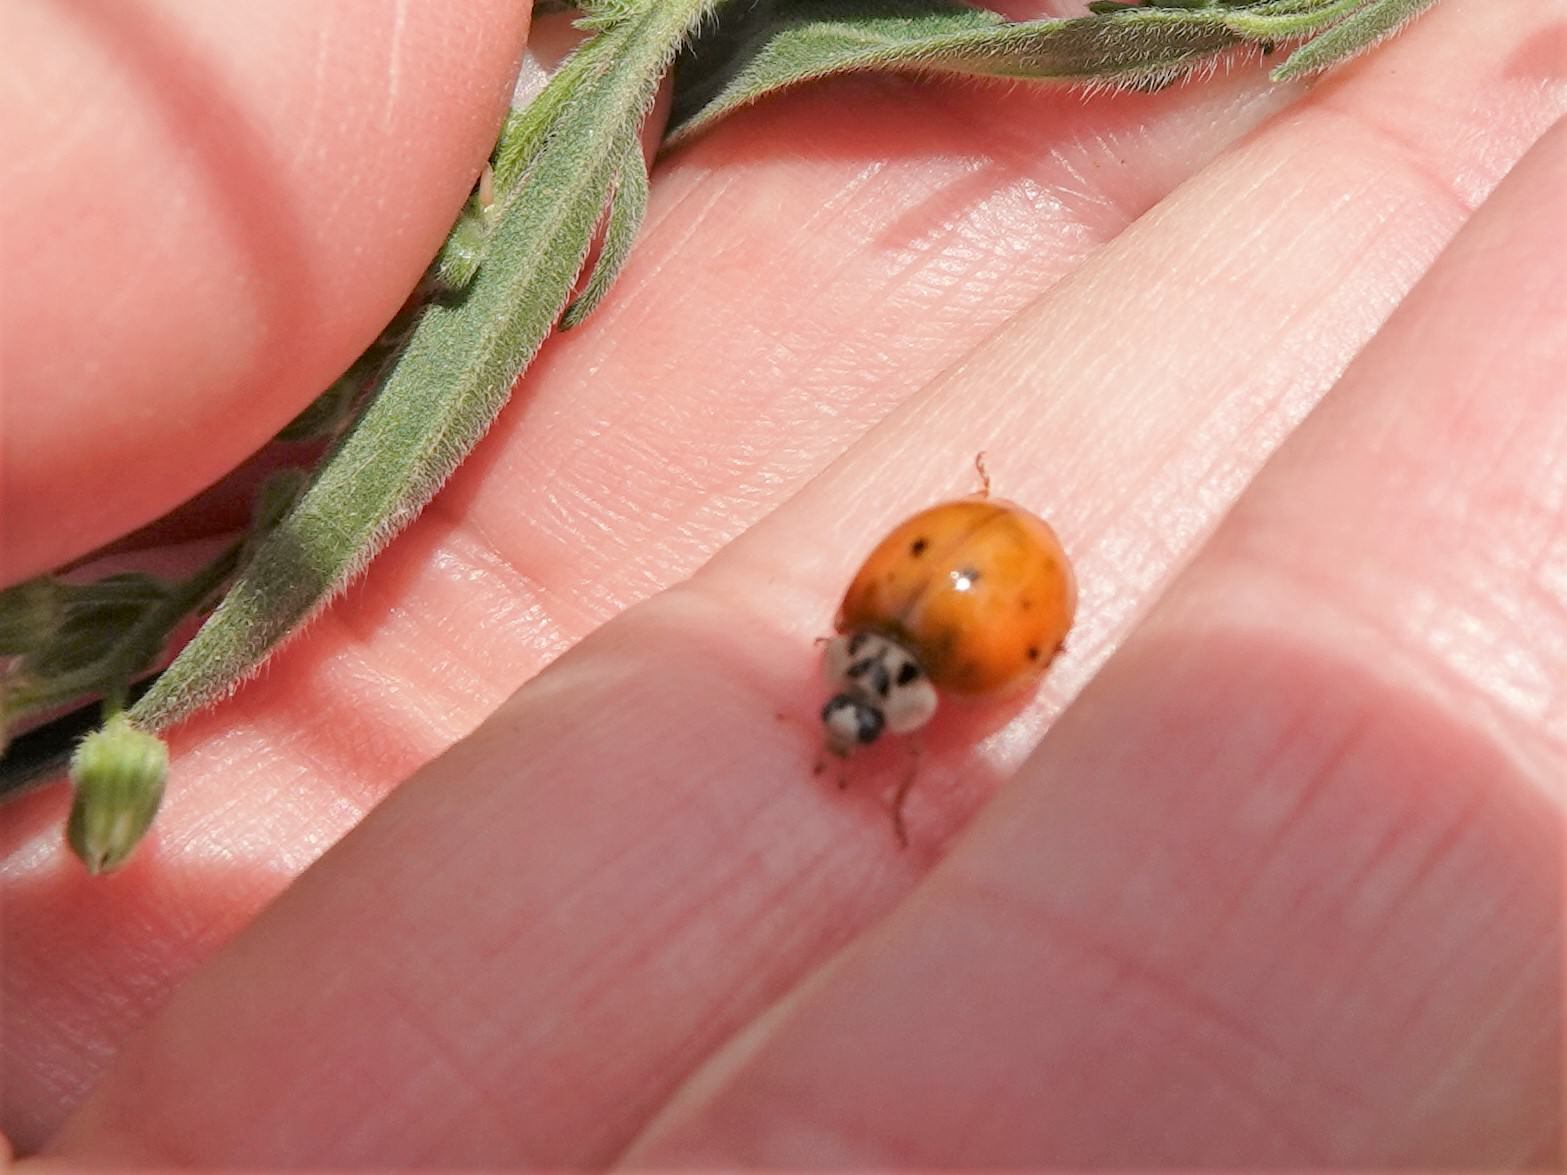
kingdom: Animalia
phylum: Arthropoda
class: Insecta
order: Coleoptera
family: Coccinellidae
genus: Harmonia
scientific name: Harmonia axyridis
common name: Harlequin ladybird
